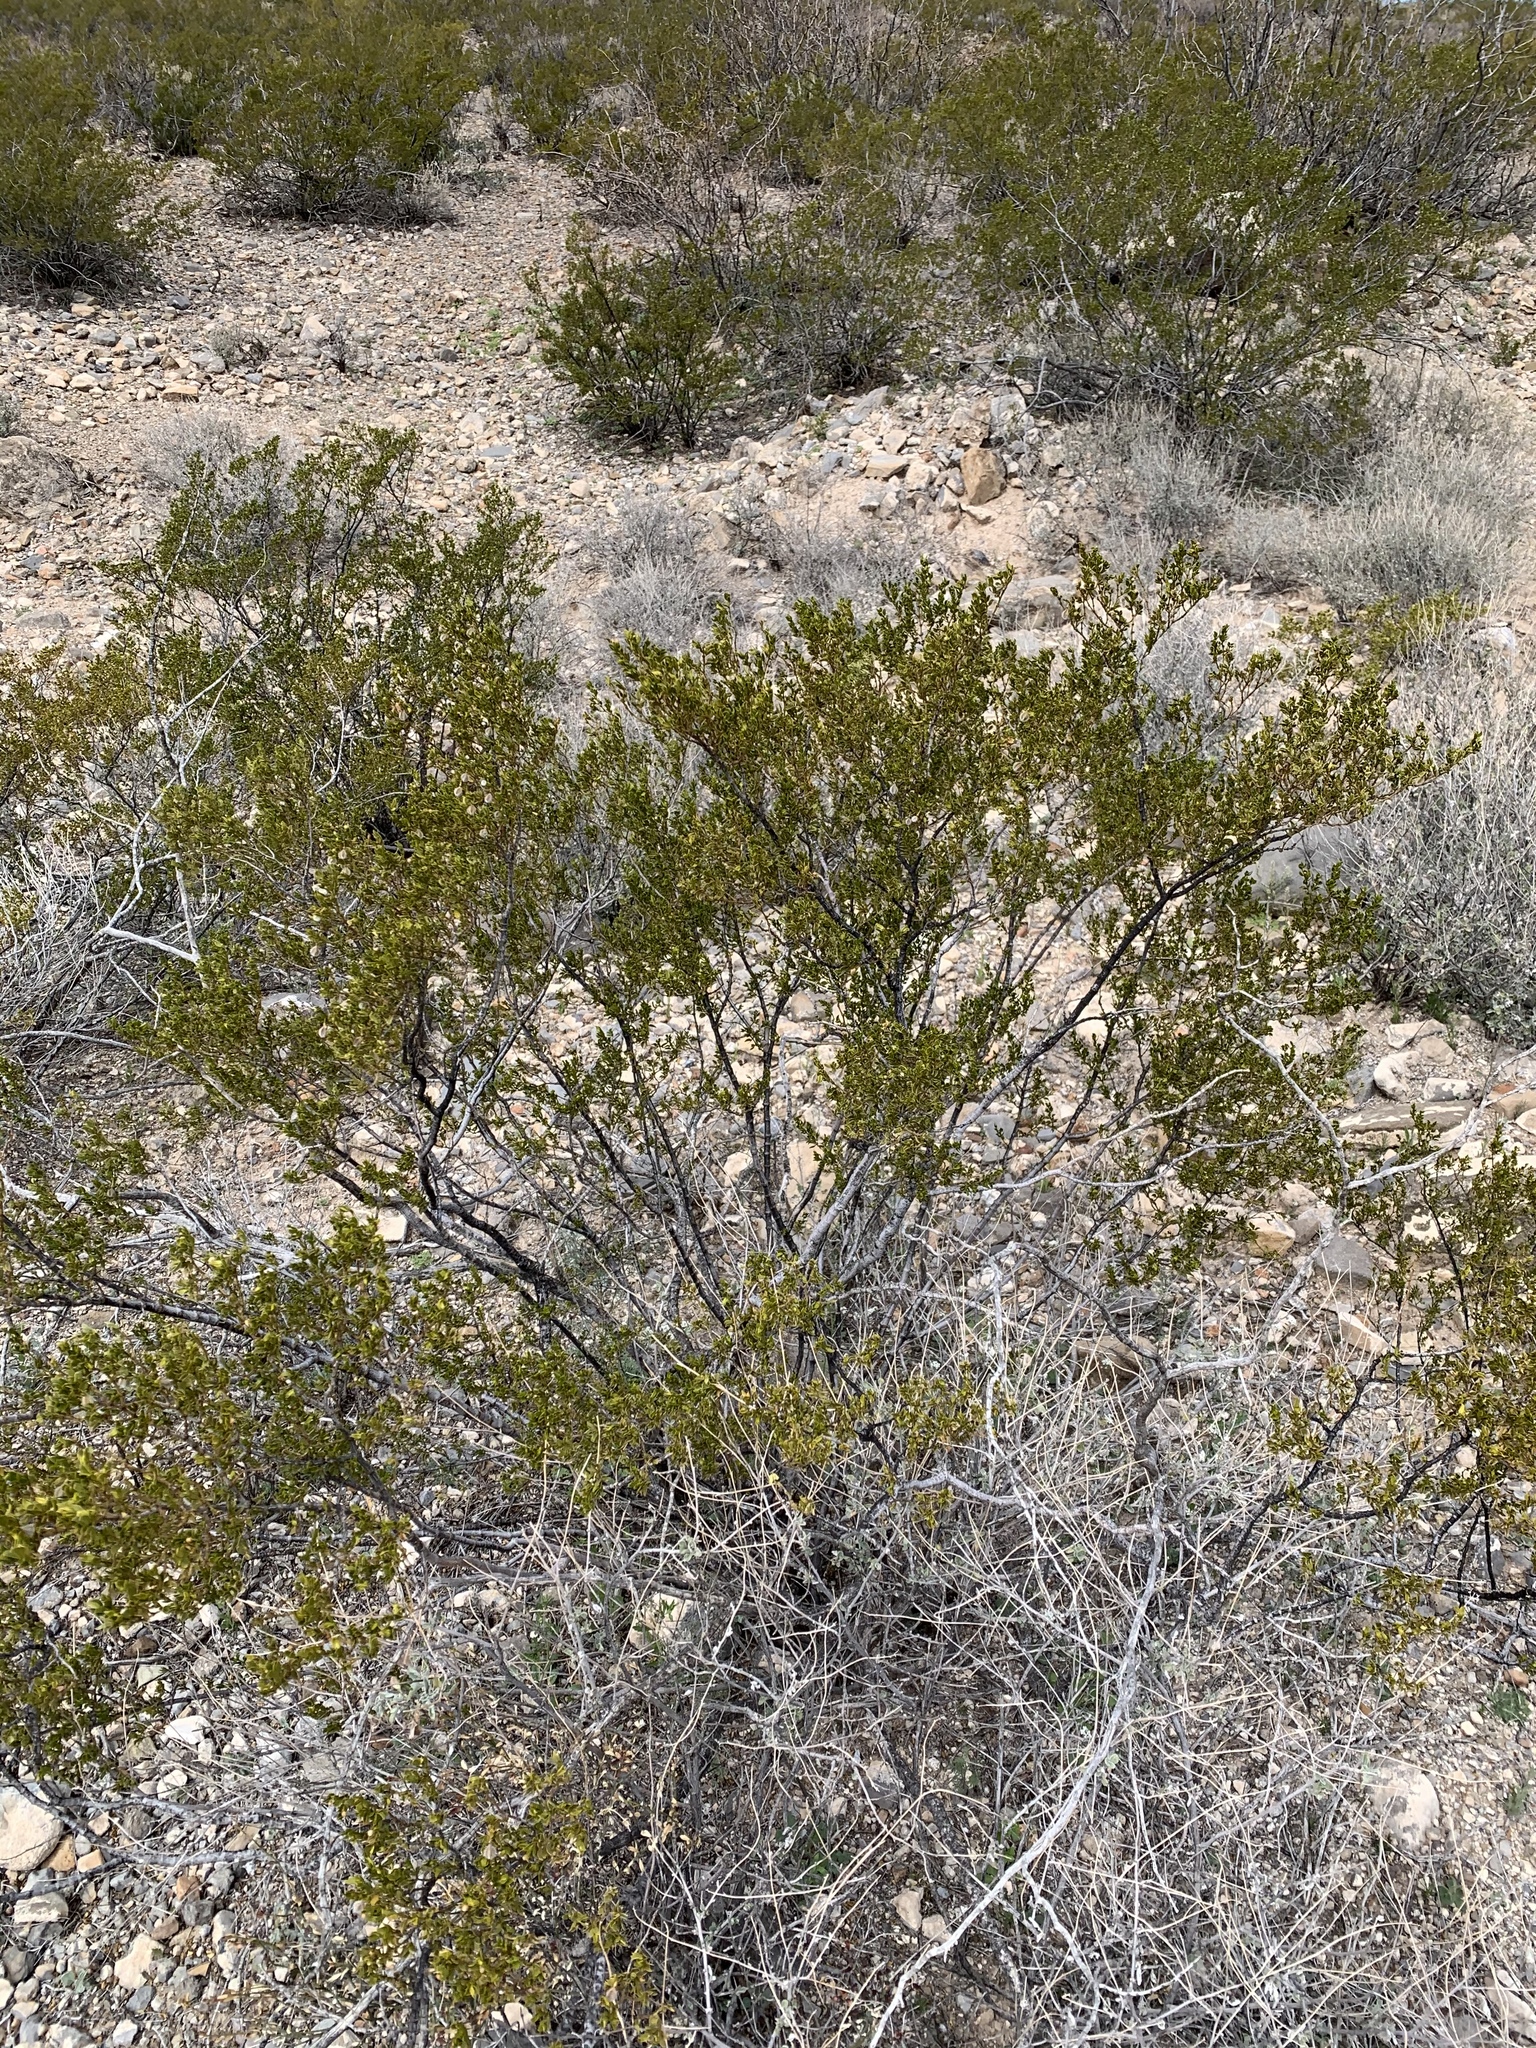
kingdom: Plantae
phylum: Tracheophyta
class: Magnoliopsida
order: Zygophyllales
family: Zygophyllaceae
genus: Larrea
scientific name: Larrea tridentata
